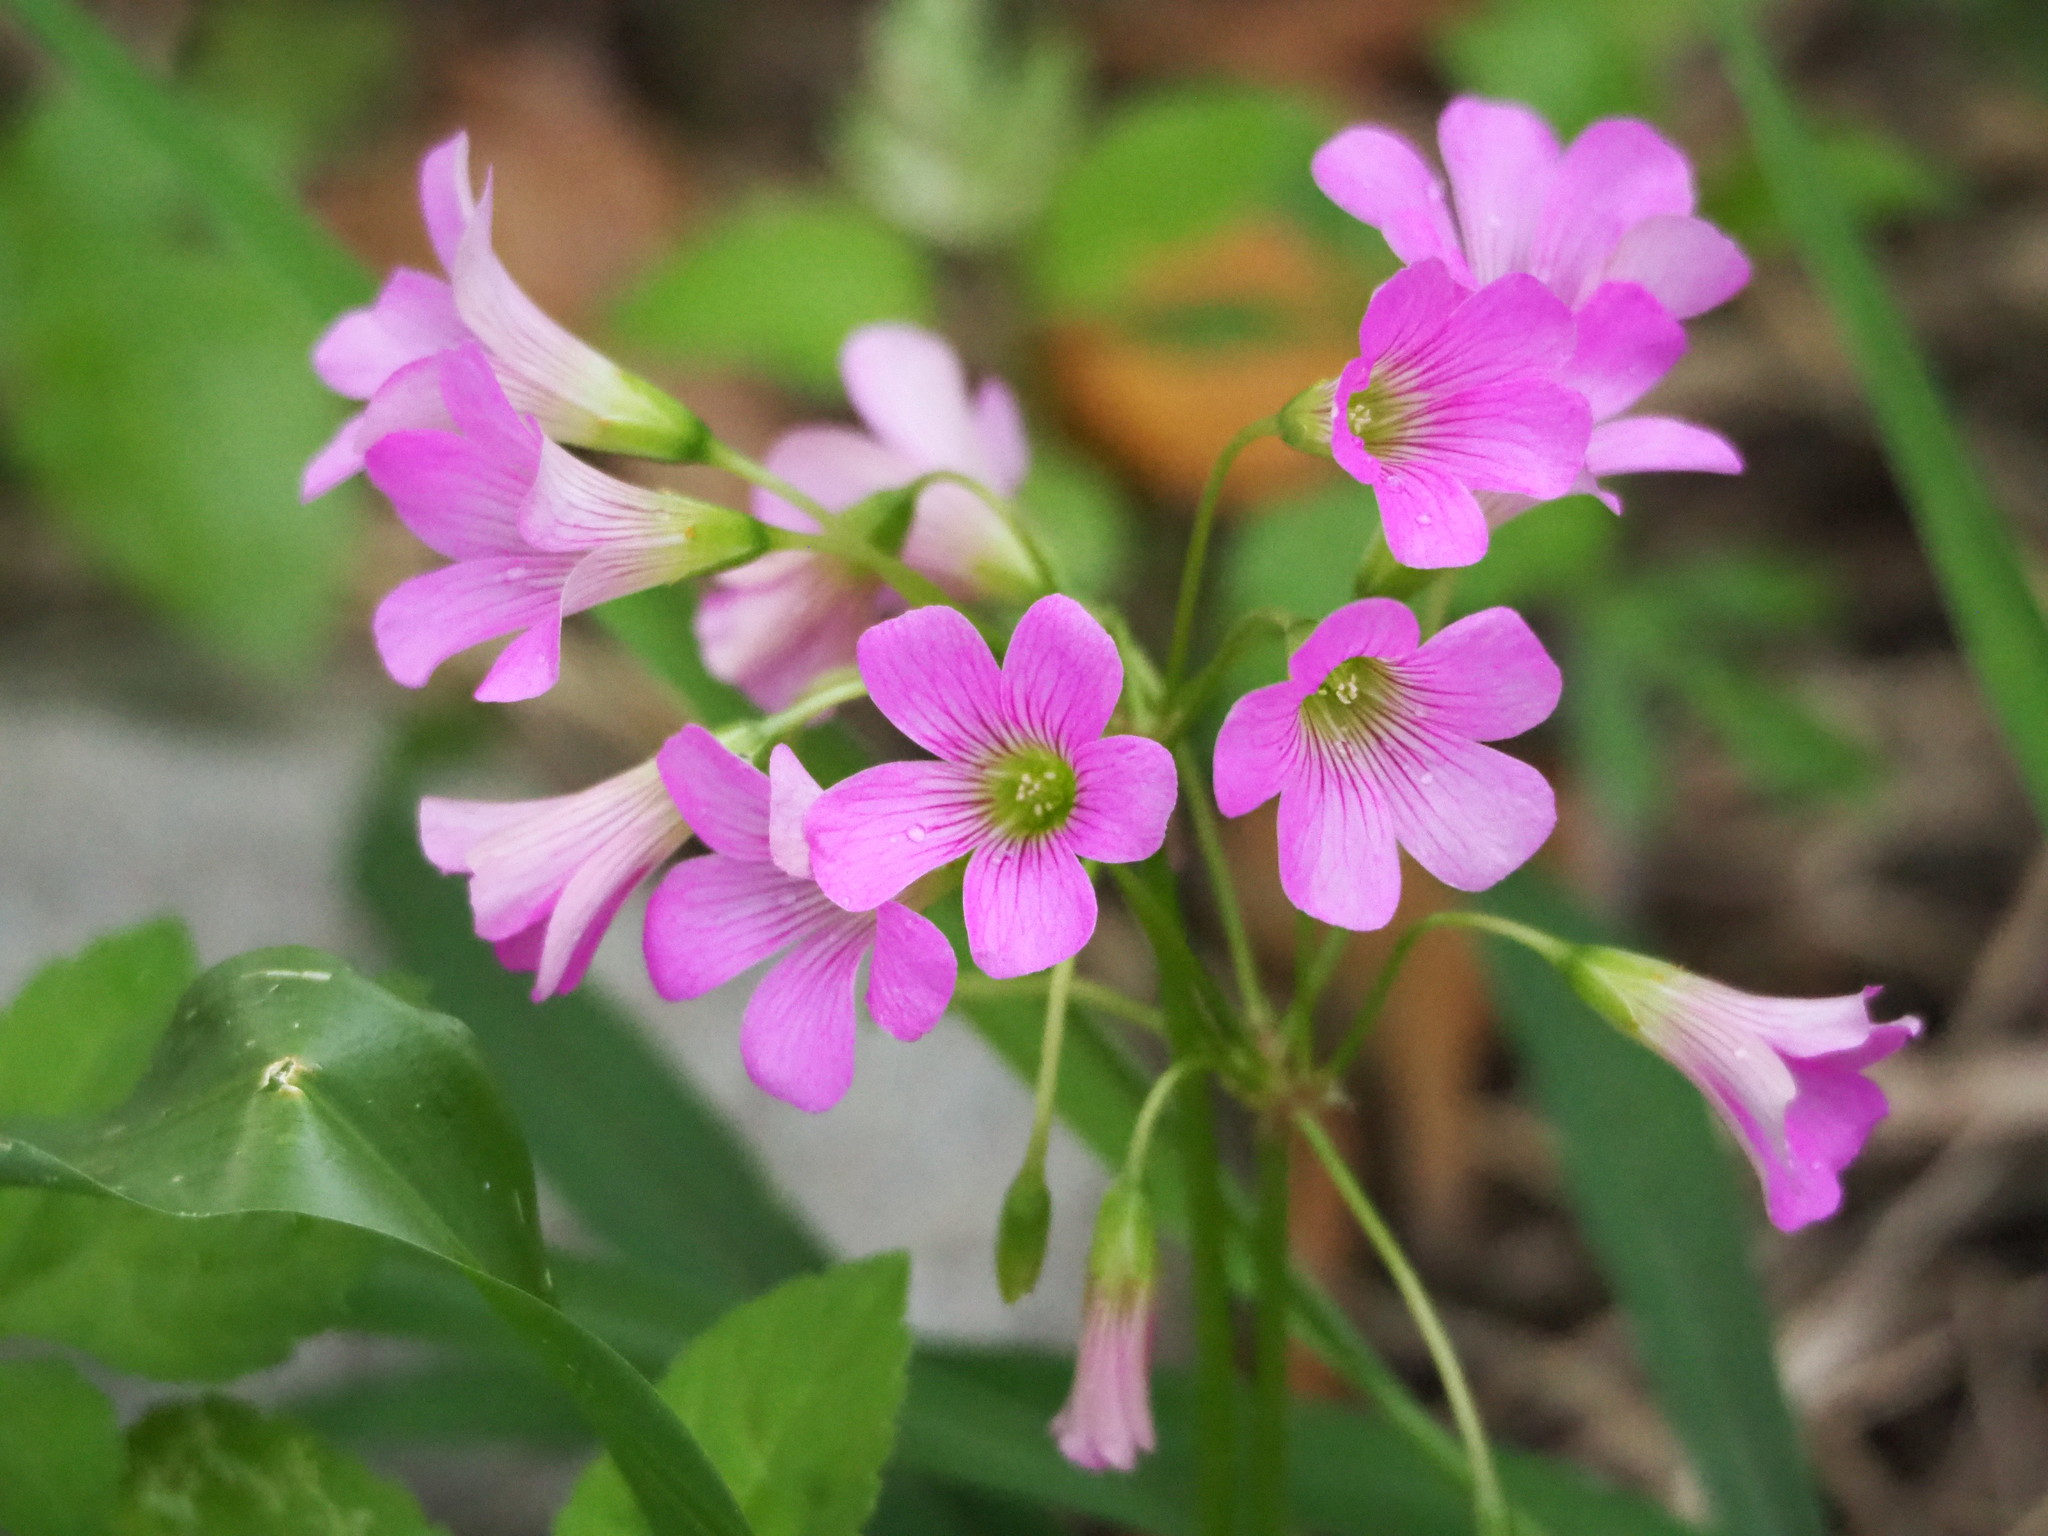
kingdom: Plantae
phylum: Tracheophyta
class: Magnoliopsida
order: Oxalidales
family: Oxalidaceae
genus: Oxalis
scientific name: Oxalis debilis
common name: Large-flowered pink-sorrel
